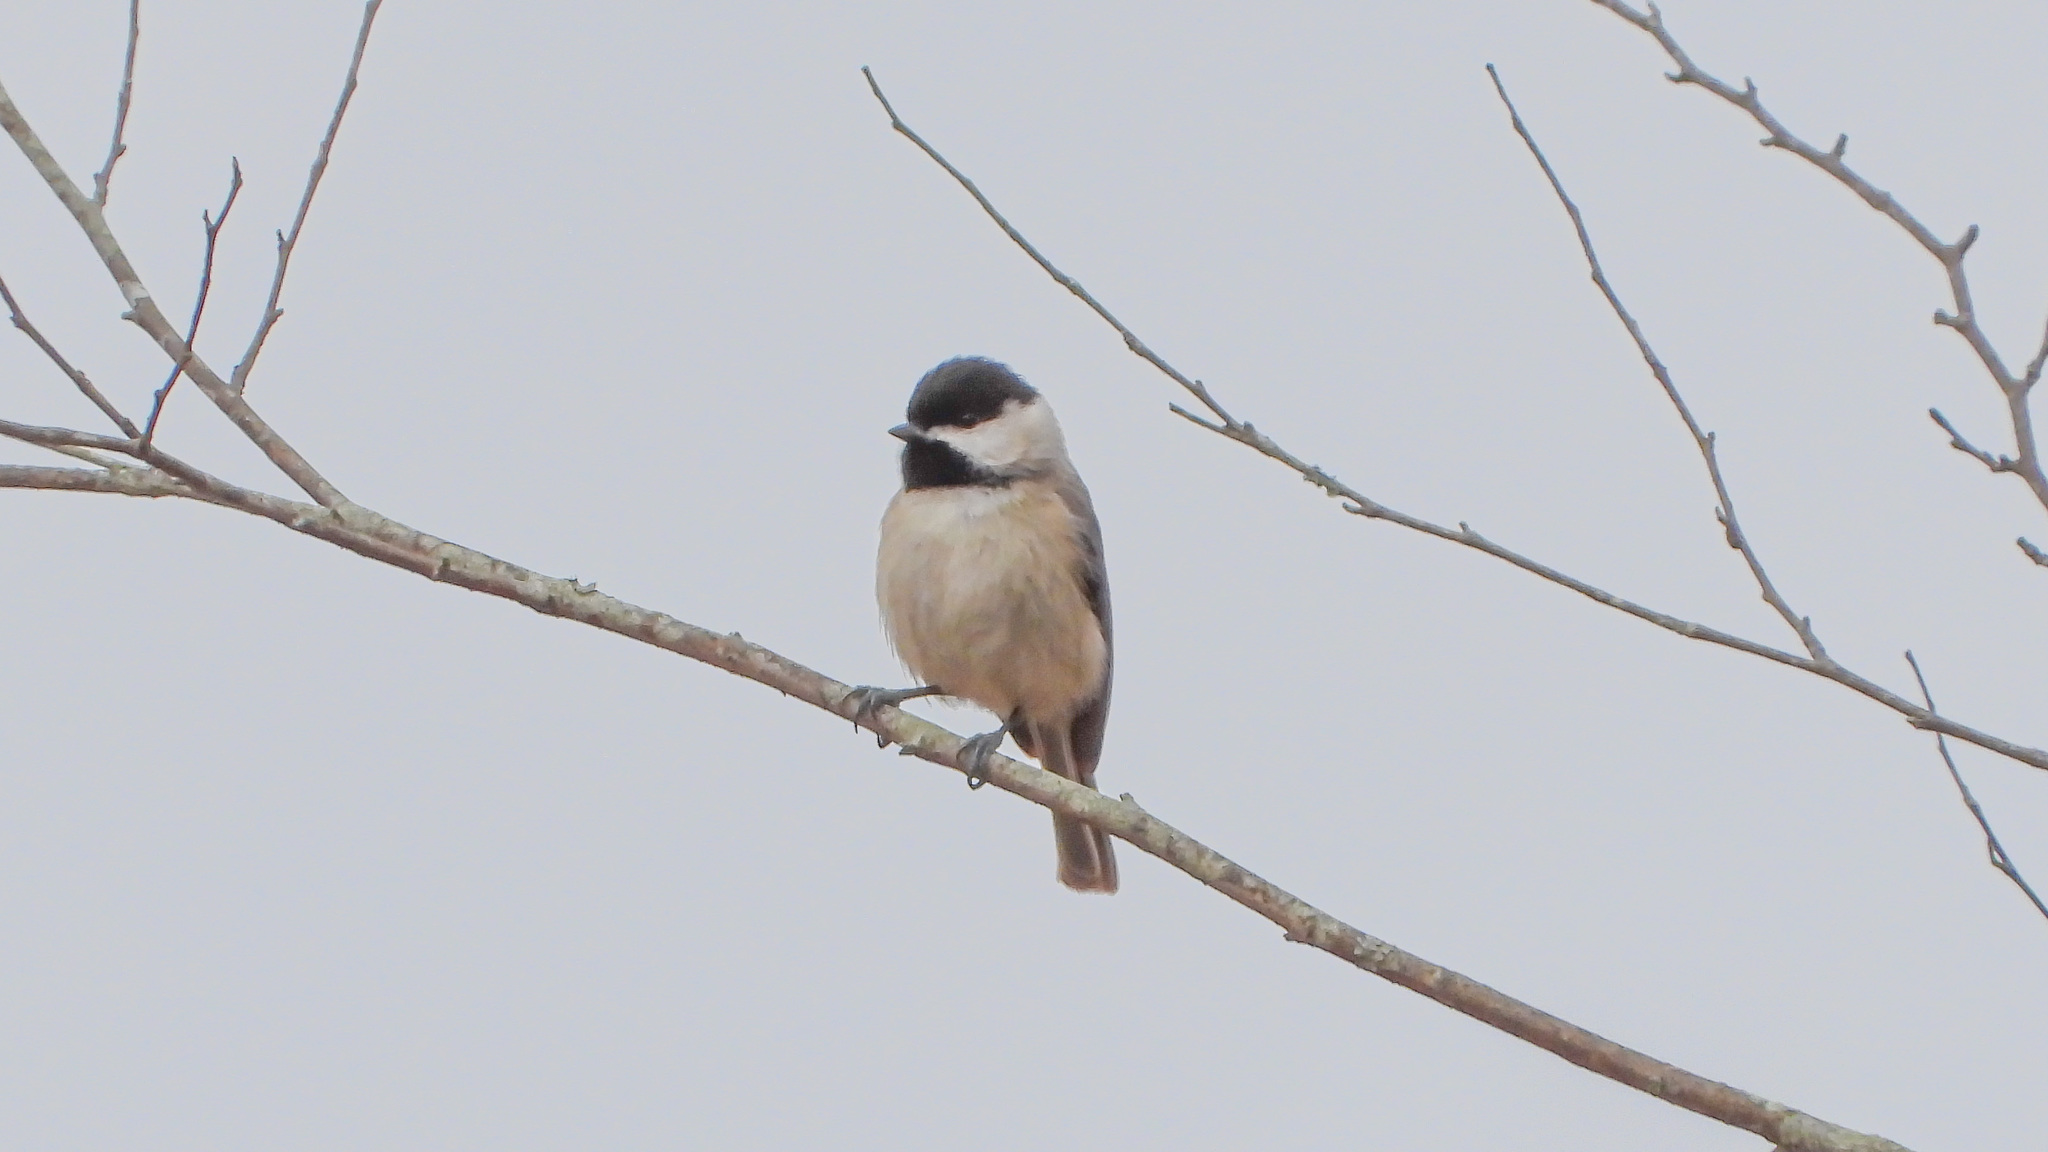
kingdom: Animalia
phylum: Chordata
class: Aves
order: Passeriformes
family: Paridae
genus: Poecile
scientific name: Poecile carolinensis
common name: Carolina chickadee
